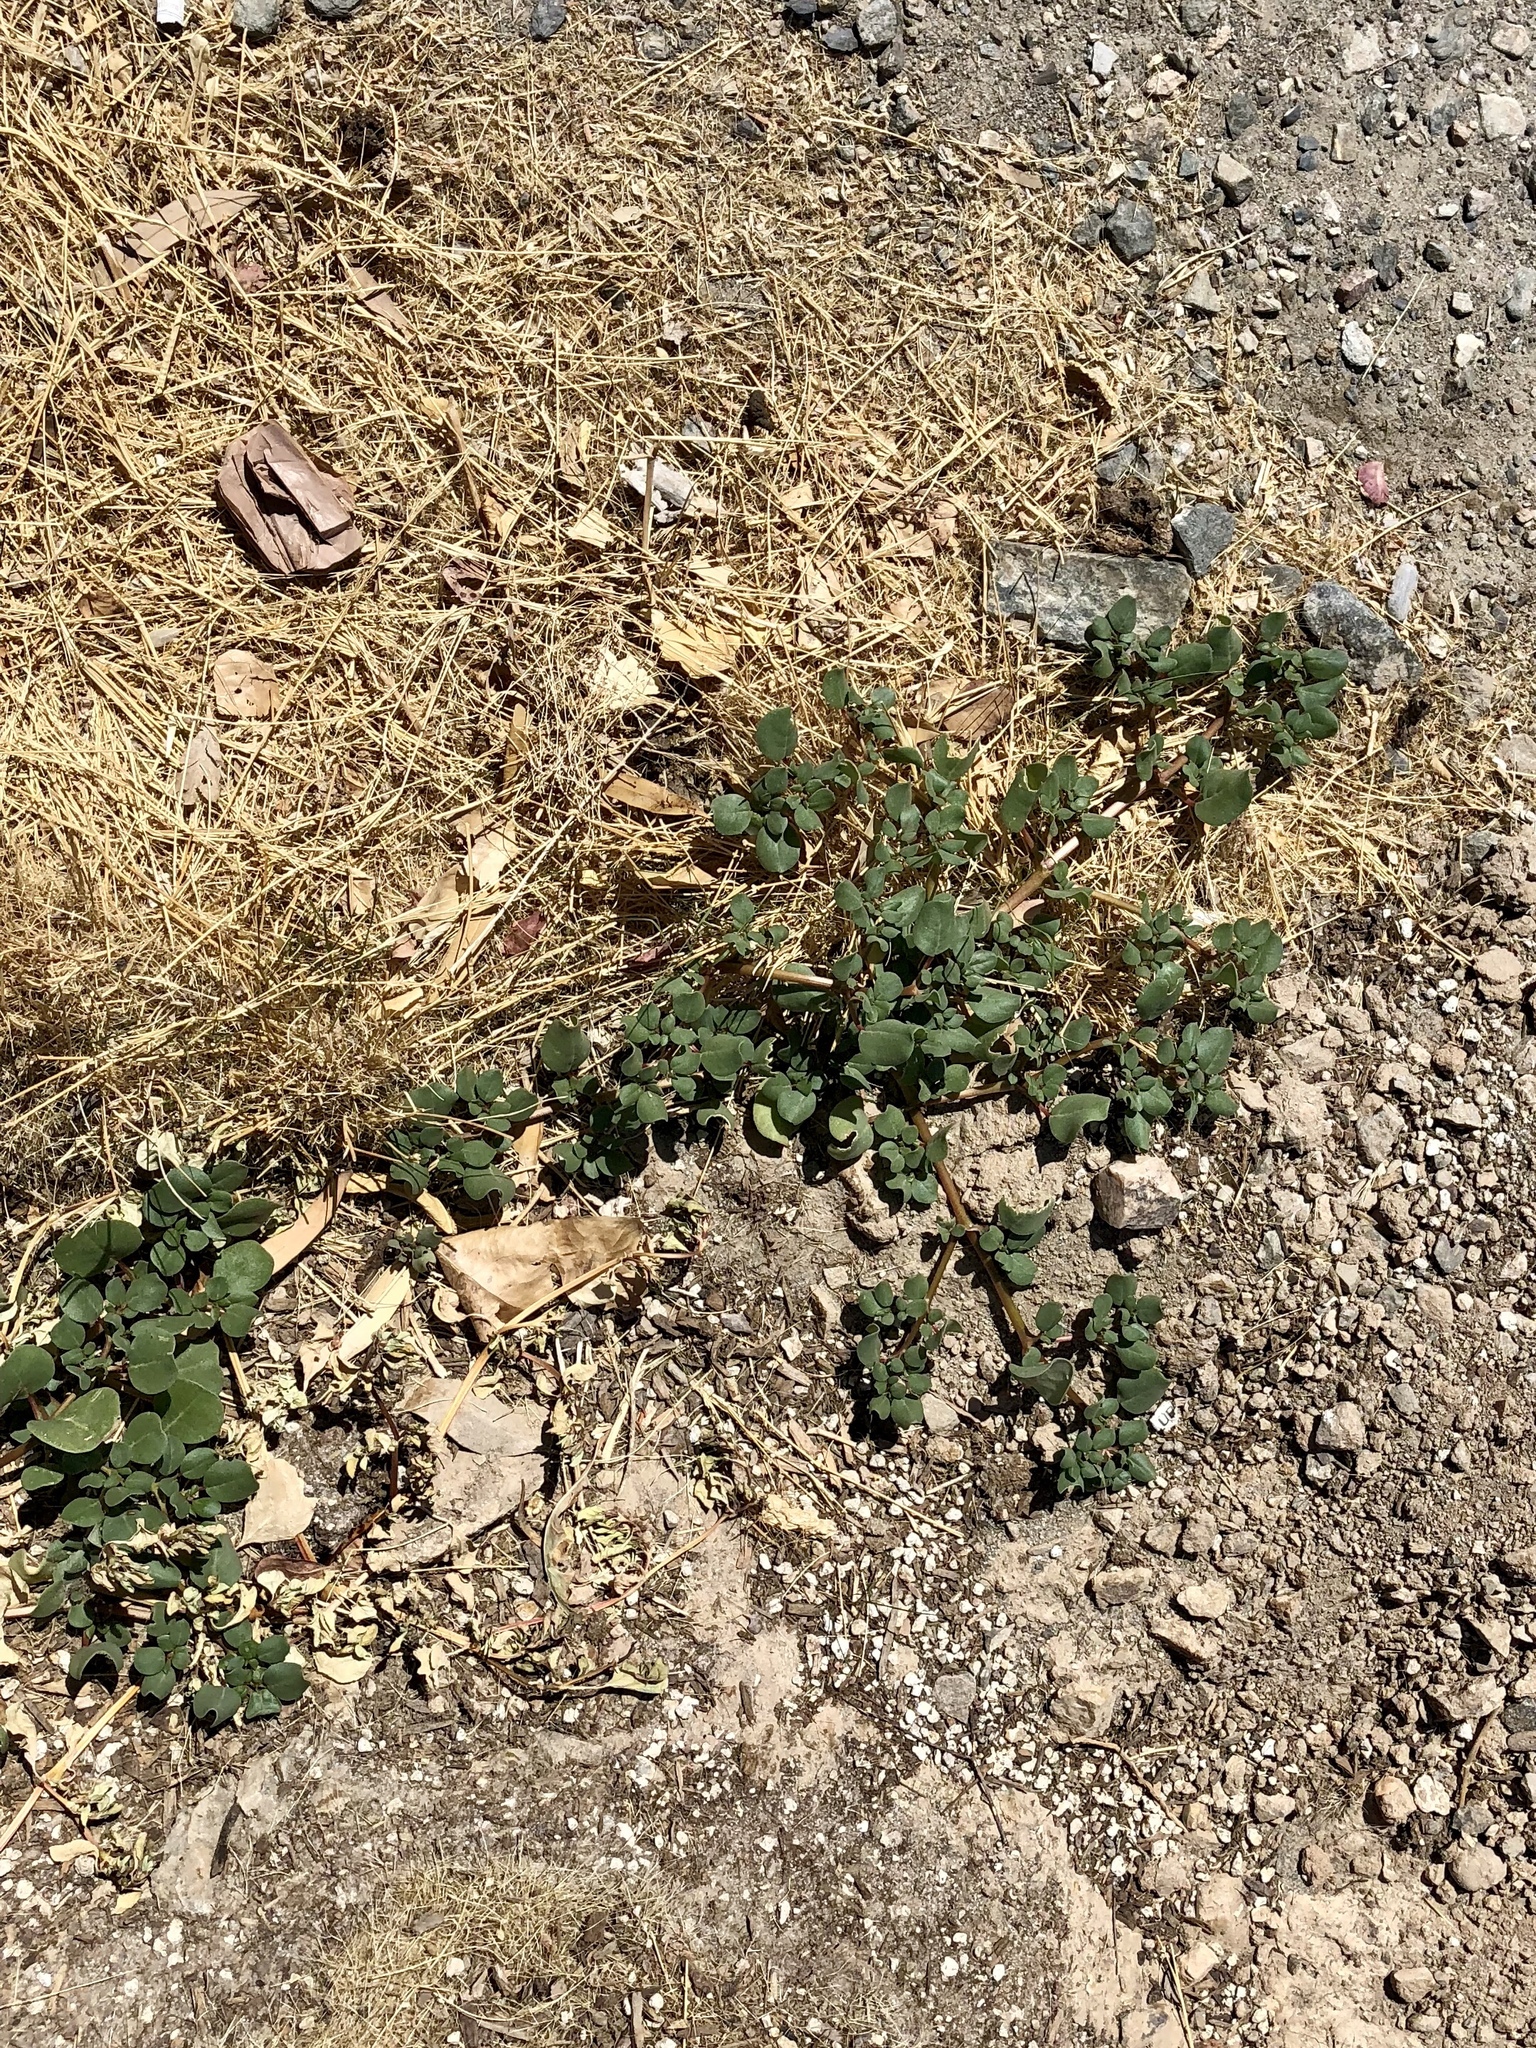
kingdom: Plantae
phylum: Tracheophyta
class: Magnoliopsida
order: Caryophyllales
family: Aizoaceae
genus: Trianthema
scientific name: Trianthema portulacastrum
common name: Desert horsepurslane
